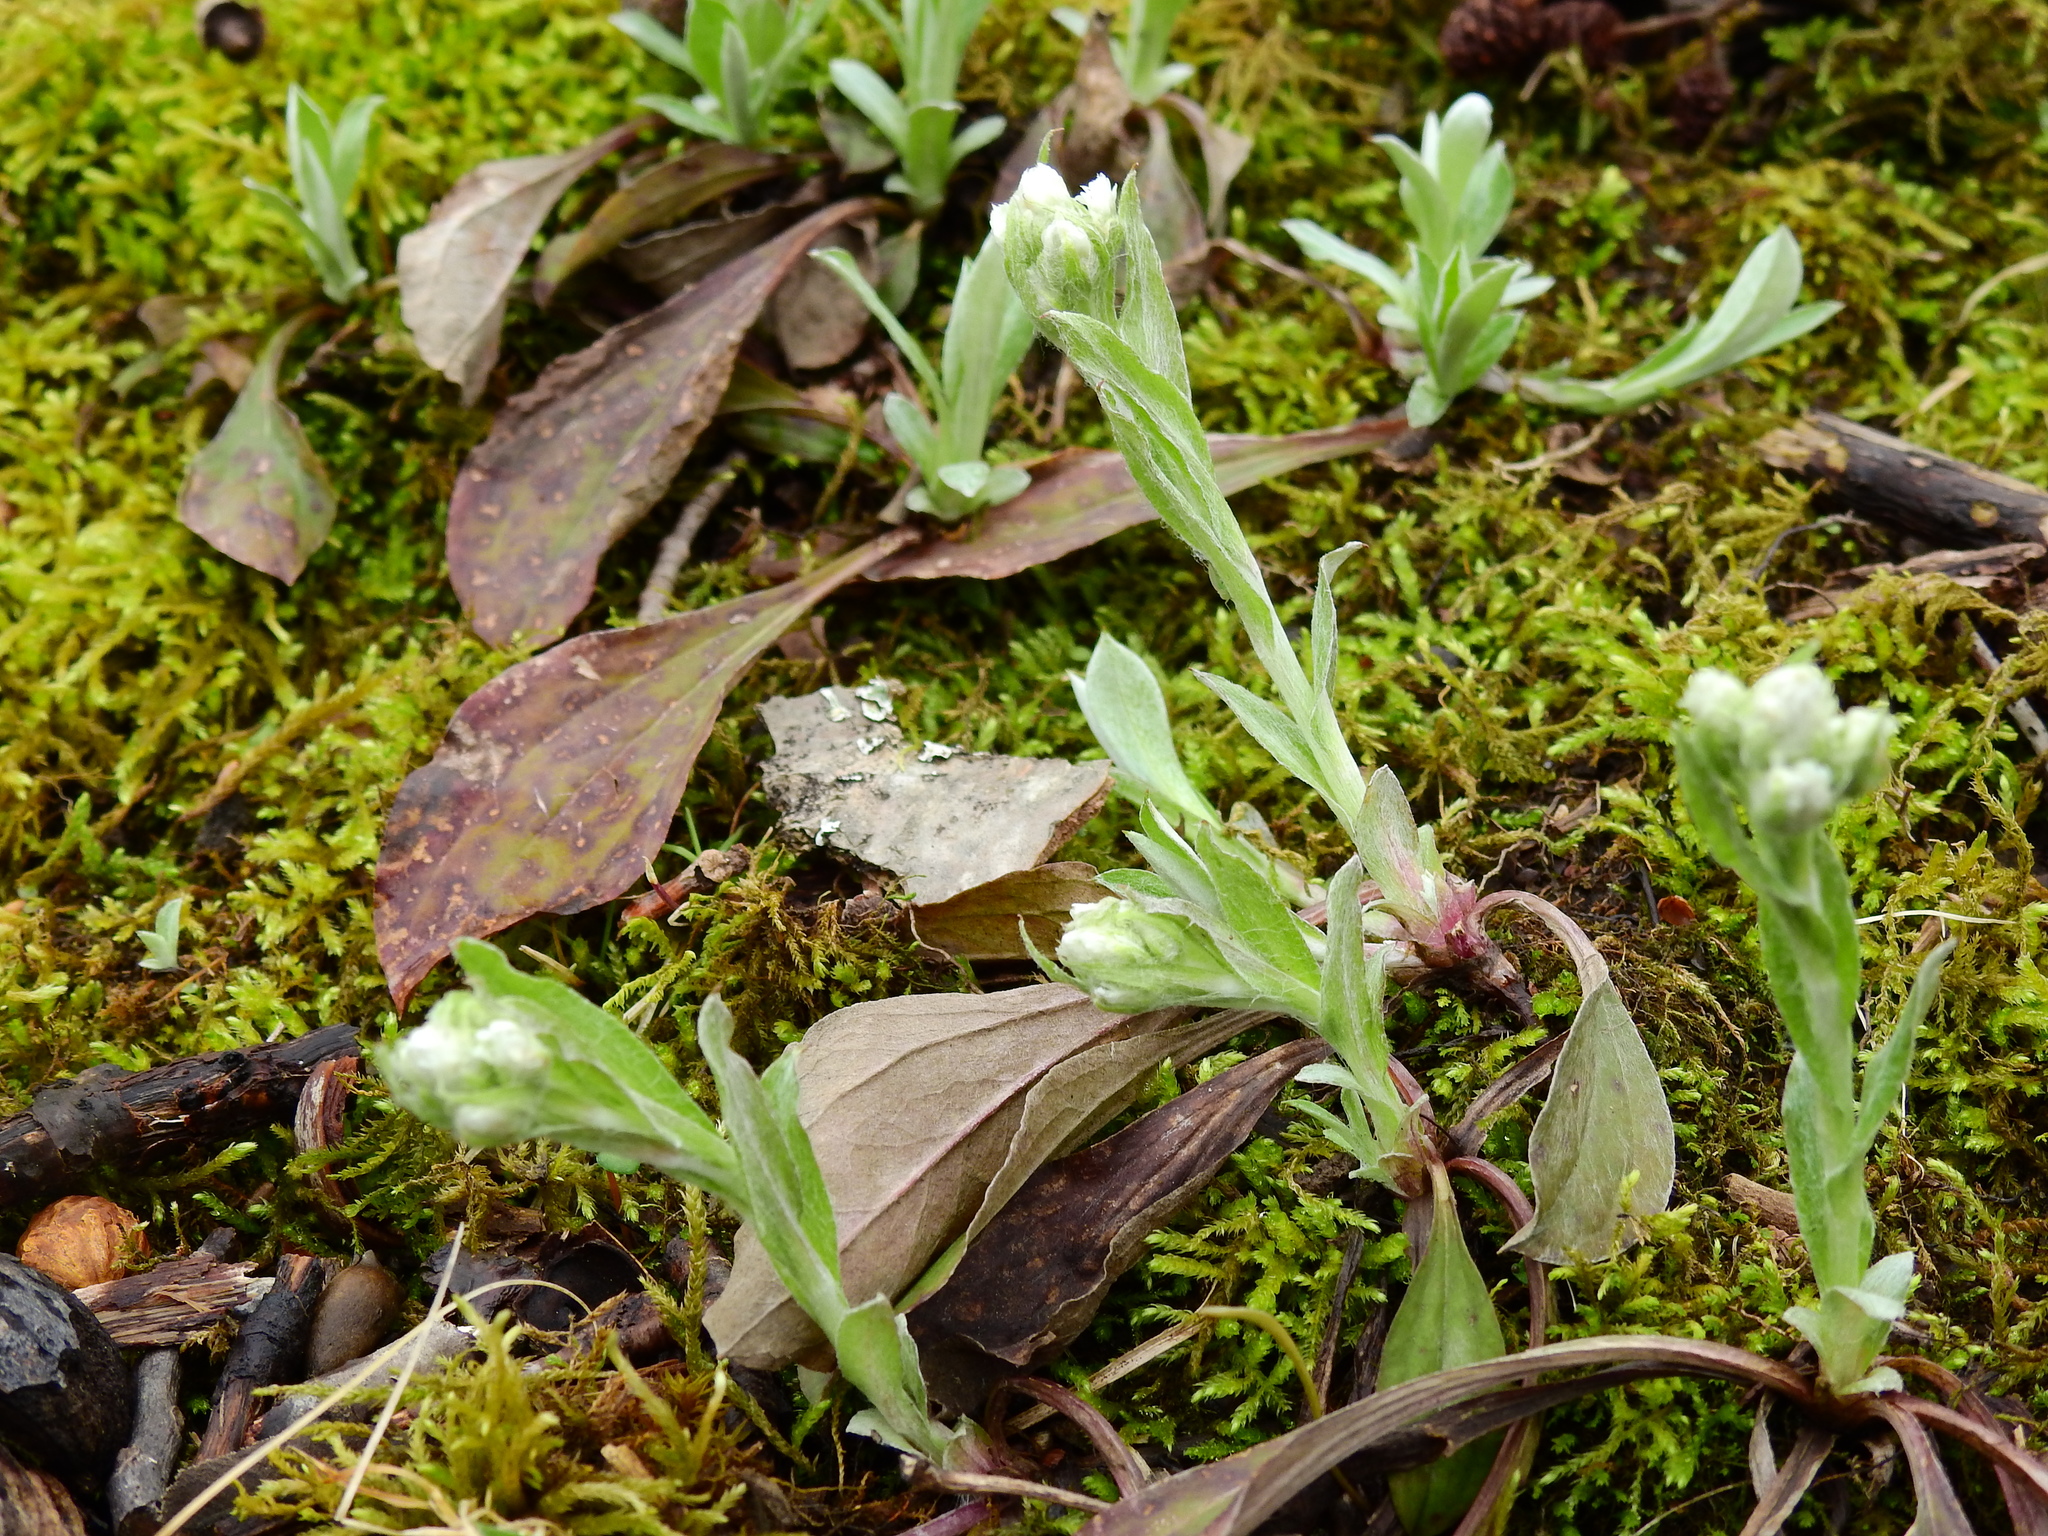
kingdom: Plantae
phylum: Tracheophyta
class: Magnoliopsida
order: Asterales
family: Asteraceae
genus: Antennaria
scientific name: Antennaria plantaginifolia
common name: Plantain-leaved pussytoes
